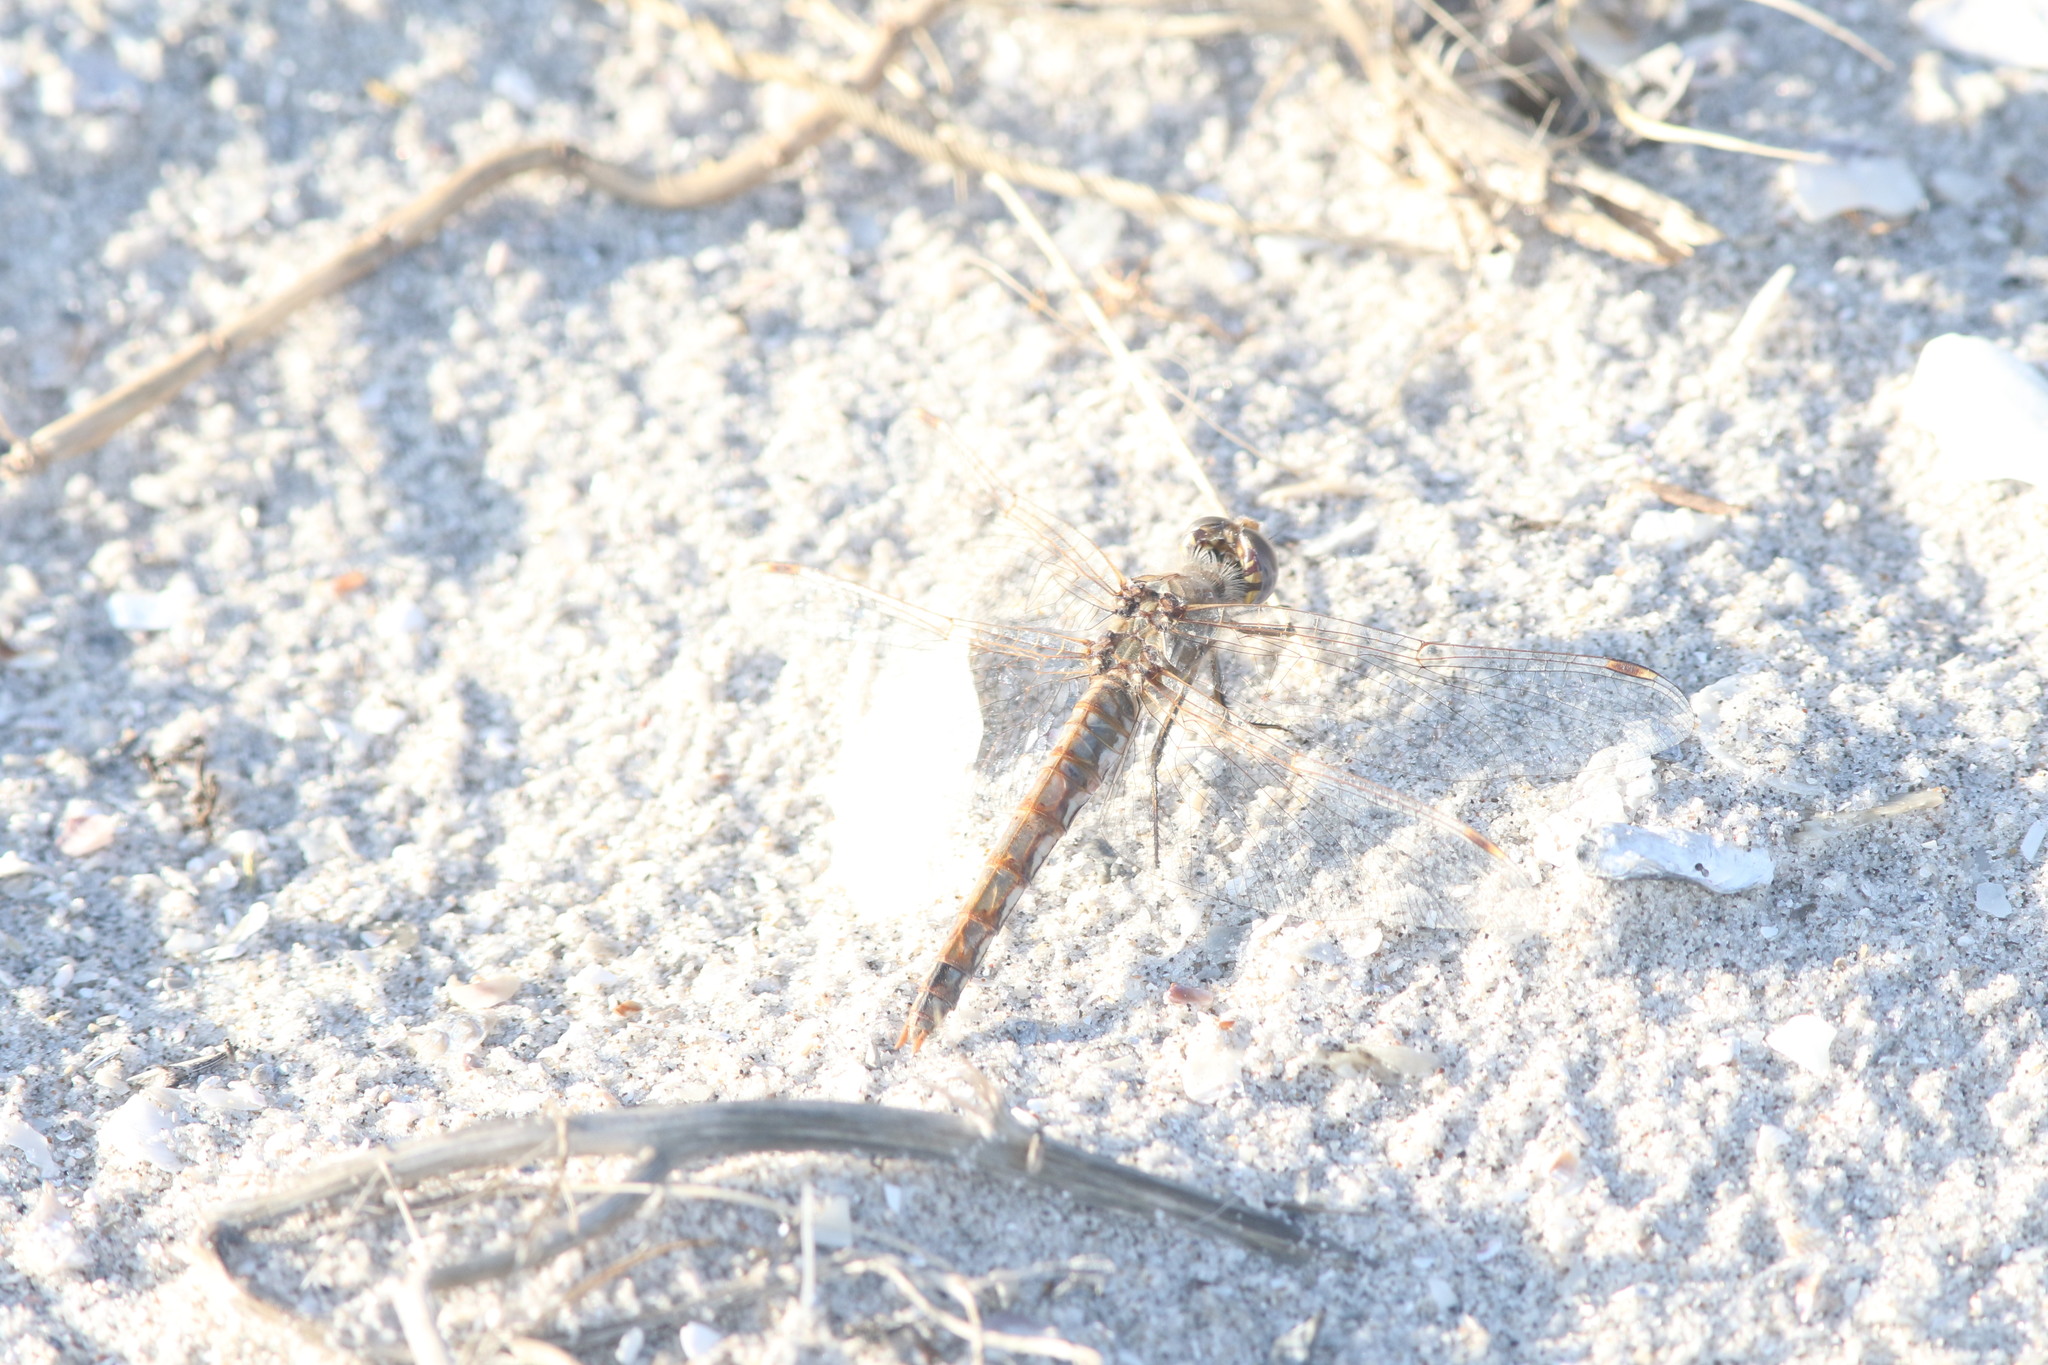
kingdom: Animalia
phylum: Arthropoda
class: Insecta
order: Odonata
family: Libellulidae
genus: Sympetrum
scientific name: Sympetrum corruptum
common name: Variegated meadowhawk
